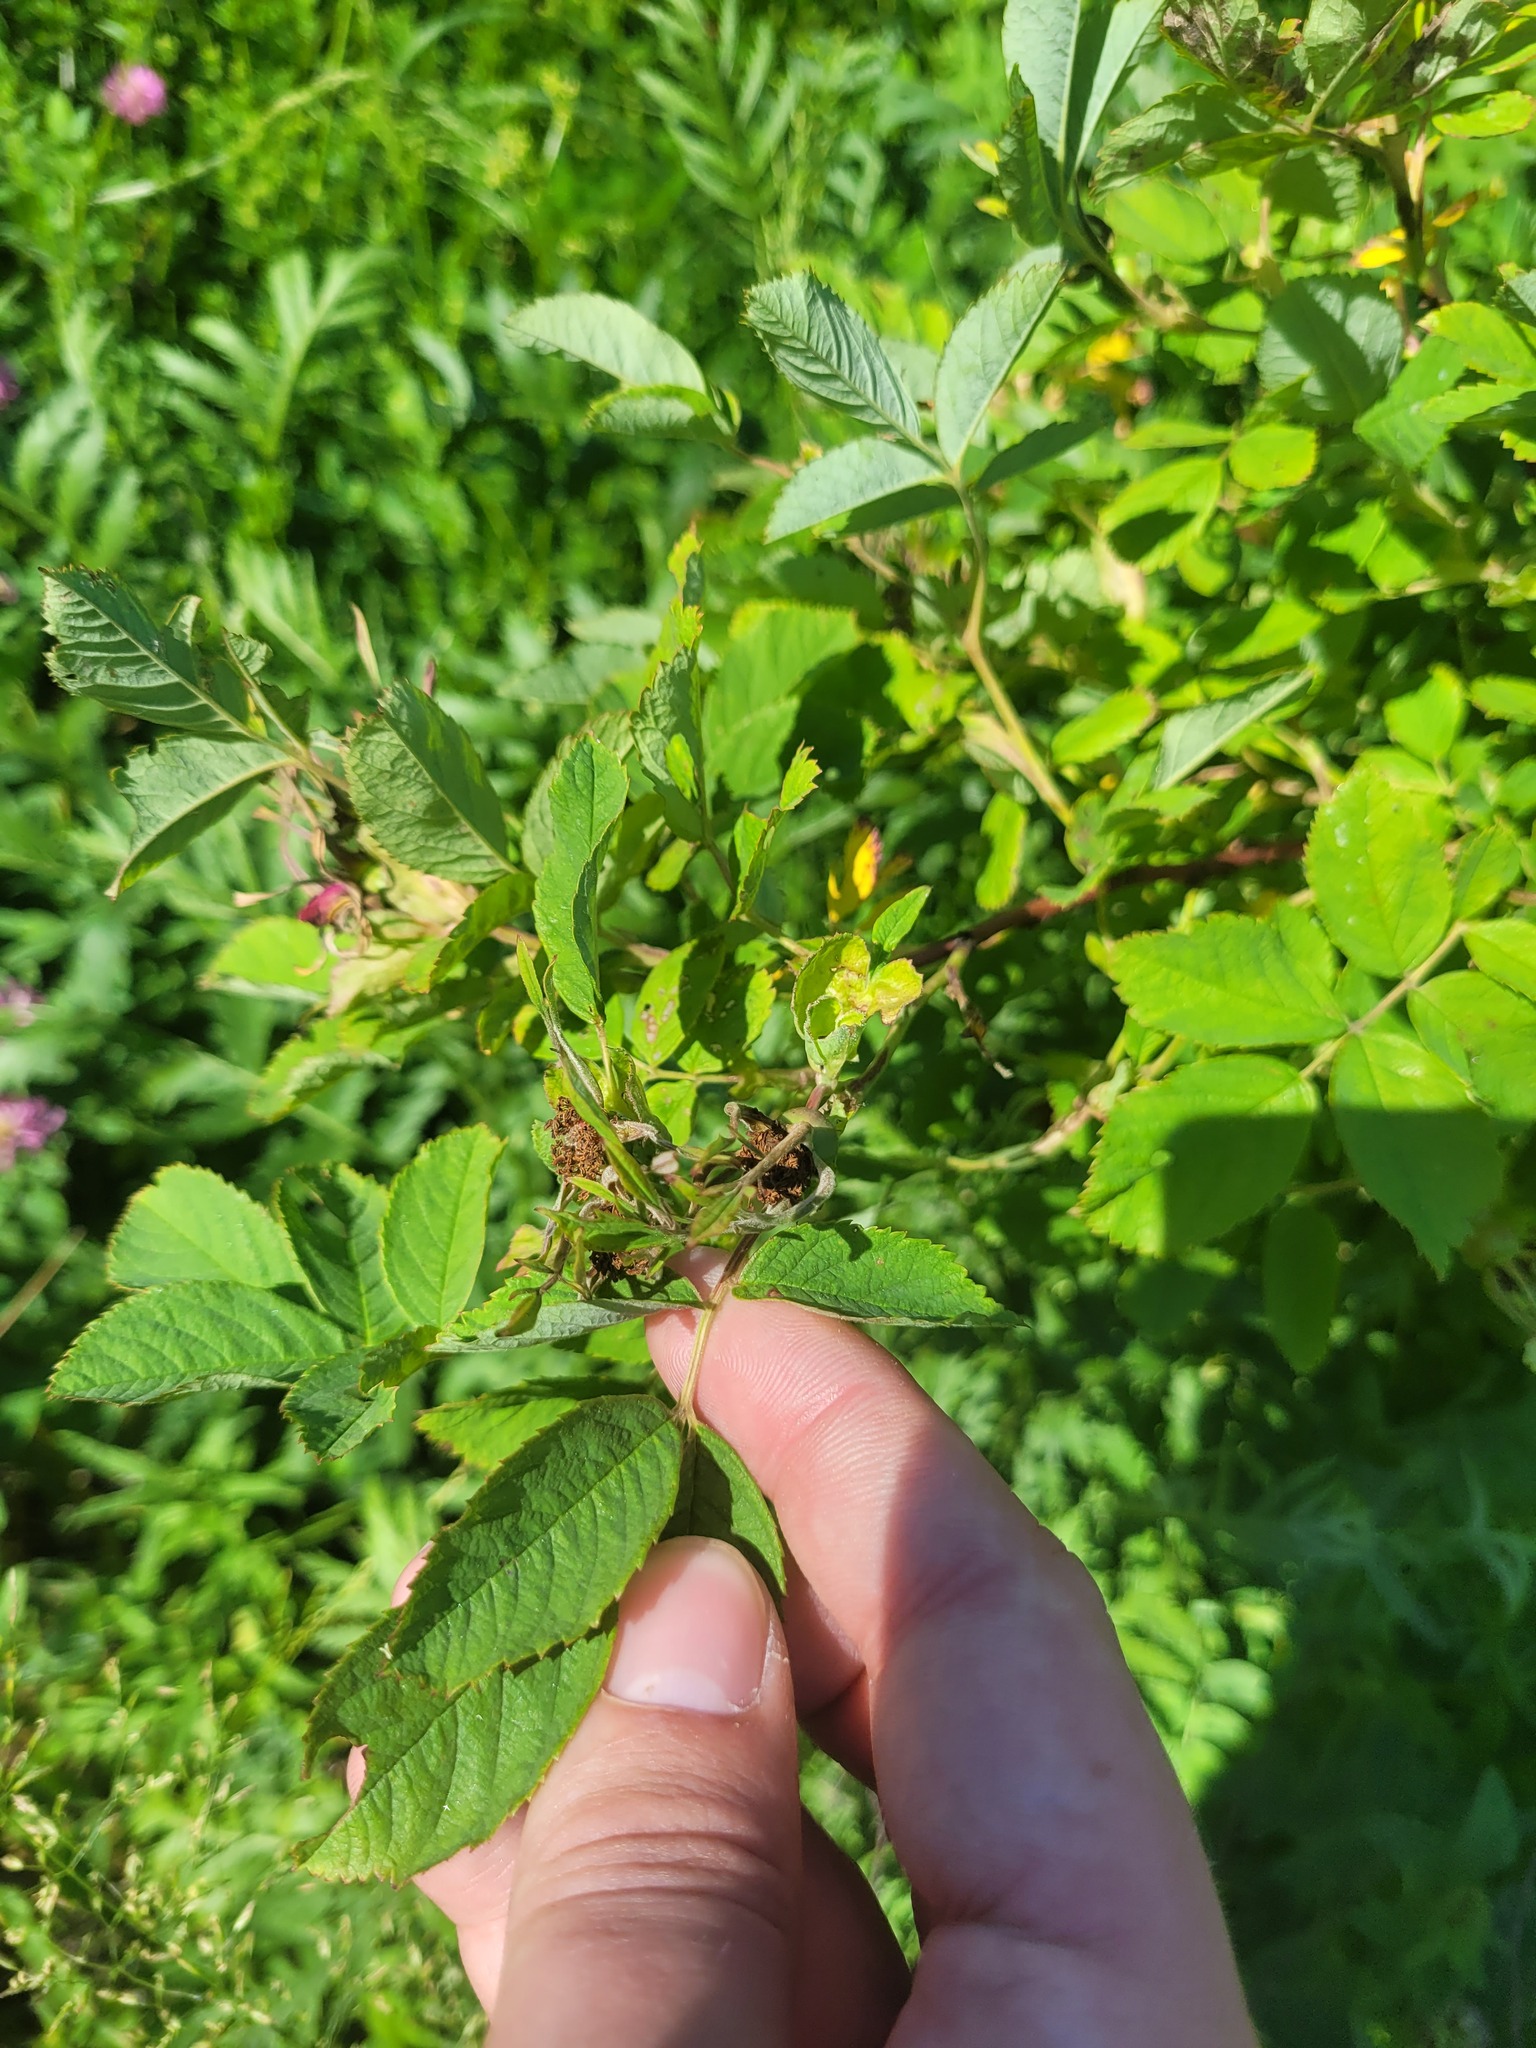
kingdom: Plantae
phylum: Tracheophyta
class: Magnoliopsida
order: Rosales
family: Rosaceae
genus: Rosa
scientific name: Rosa majalis
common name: Cinnamon rose
